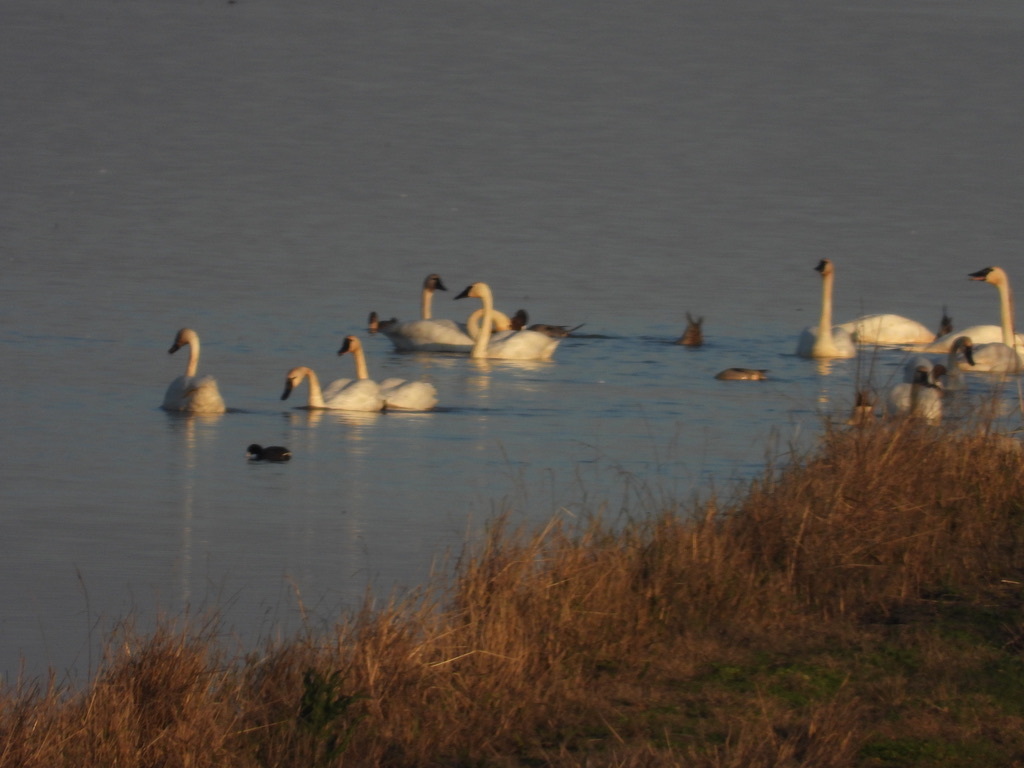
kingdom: Animalia
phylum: Chordata
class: Aves
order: Anseriformes
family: Anatidae
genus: Cygnus
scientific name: Cygnus columbianus
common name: Tundra swan
